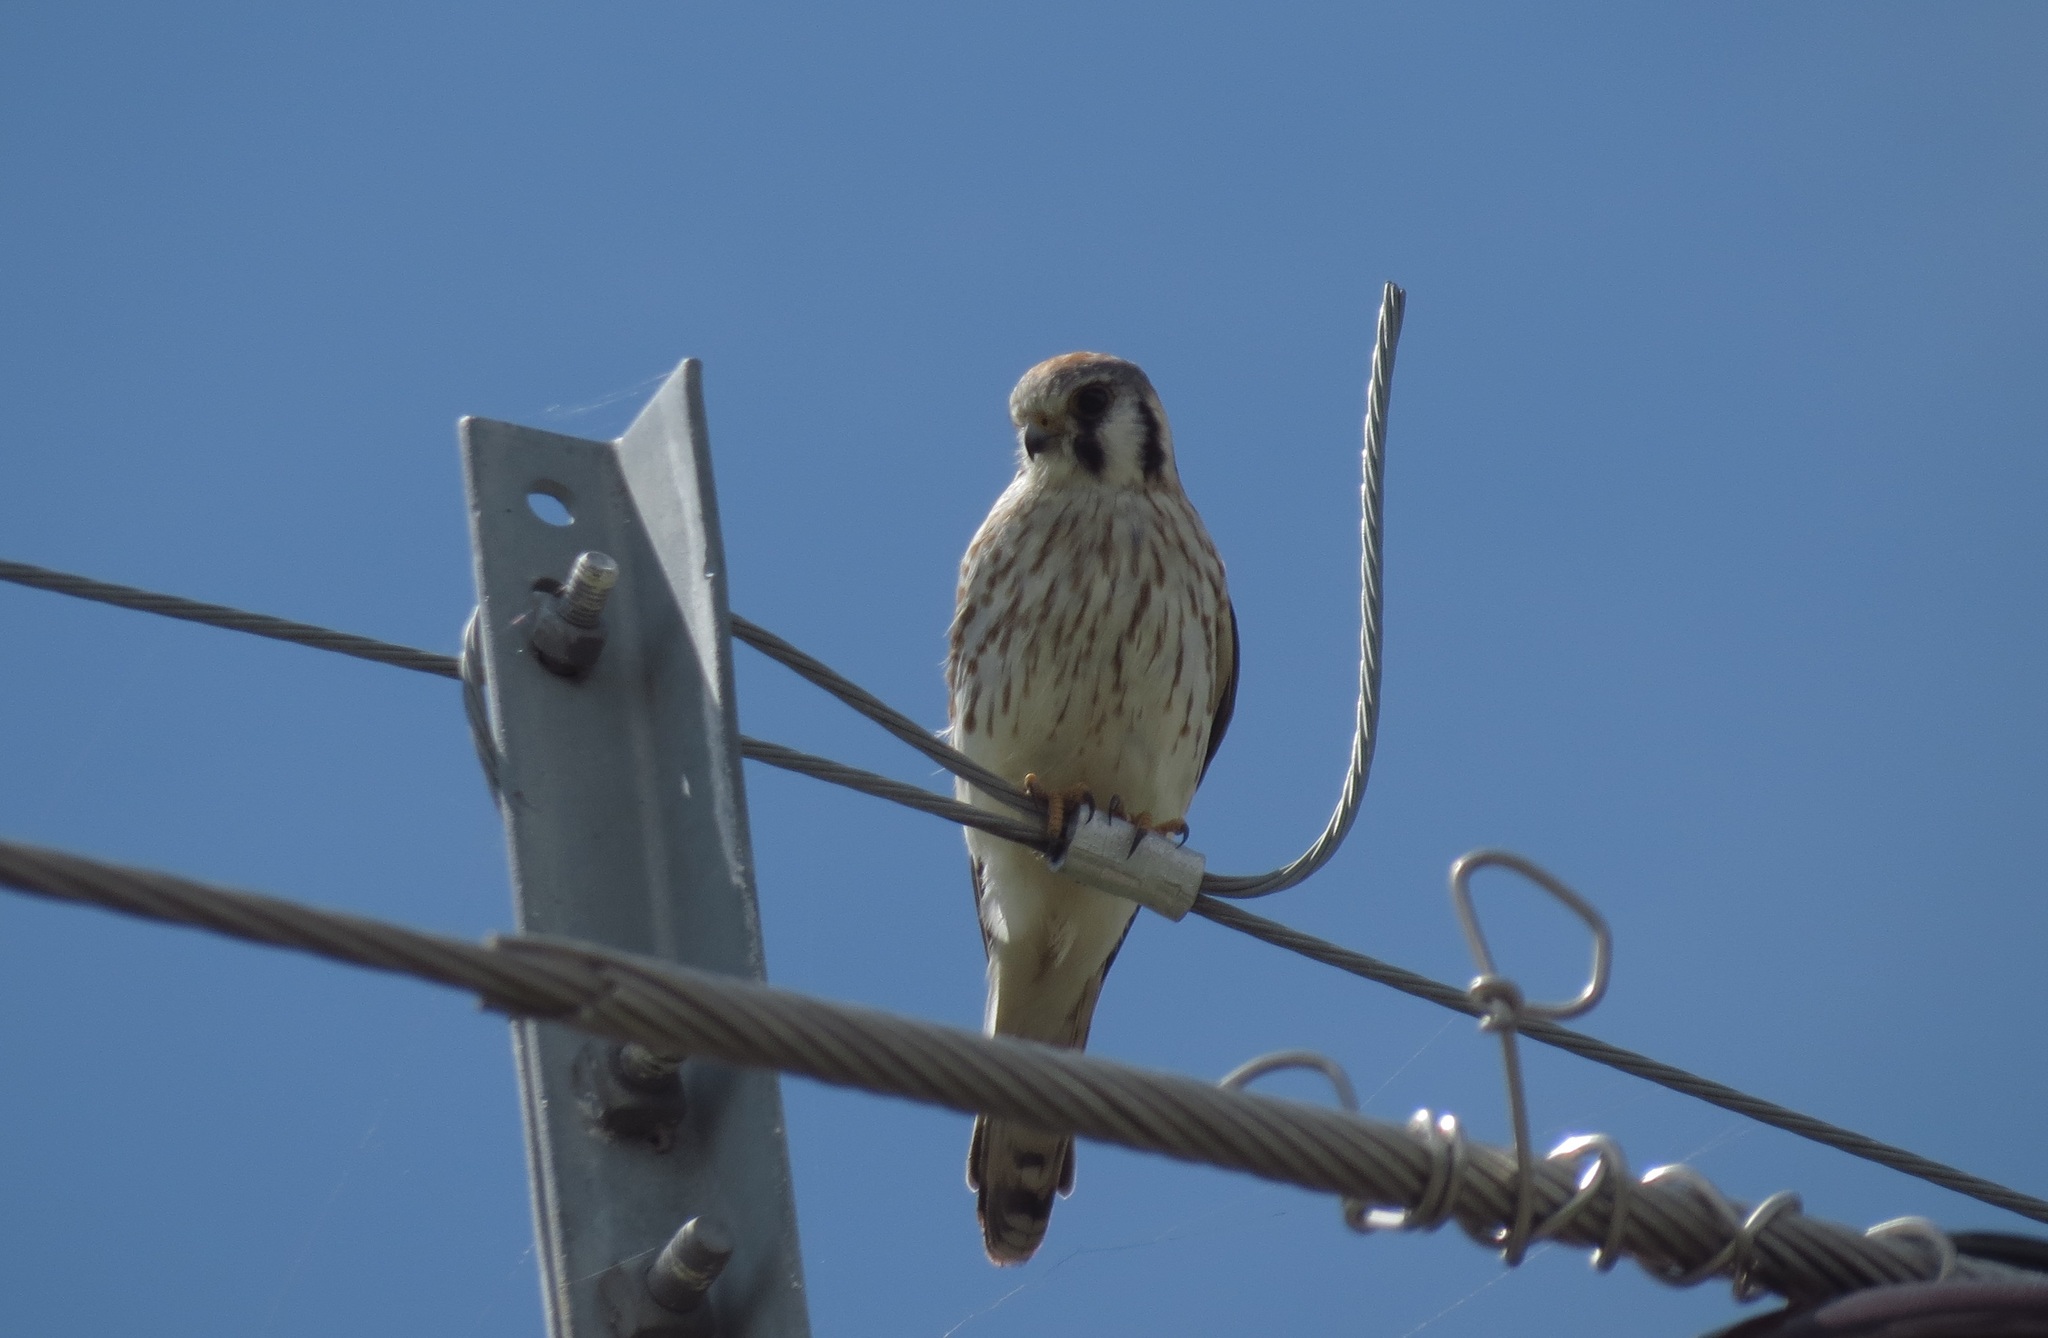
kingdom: Animalia
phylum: Chordata
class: Aves
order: Falconiformes
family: Falconidae
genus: Falco
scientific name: Falco sparverius
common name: American kestrel
